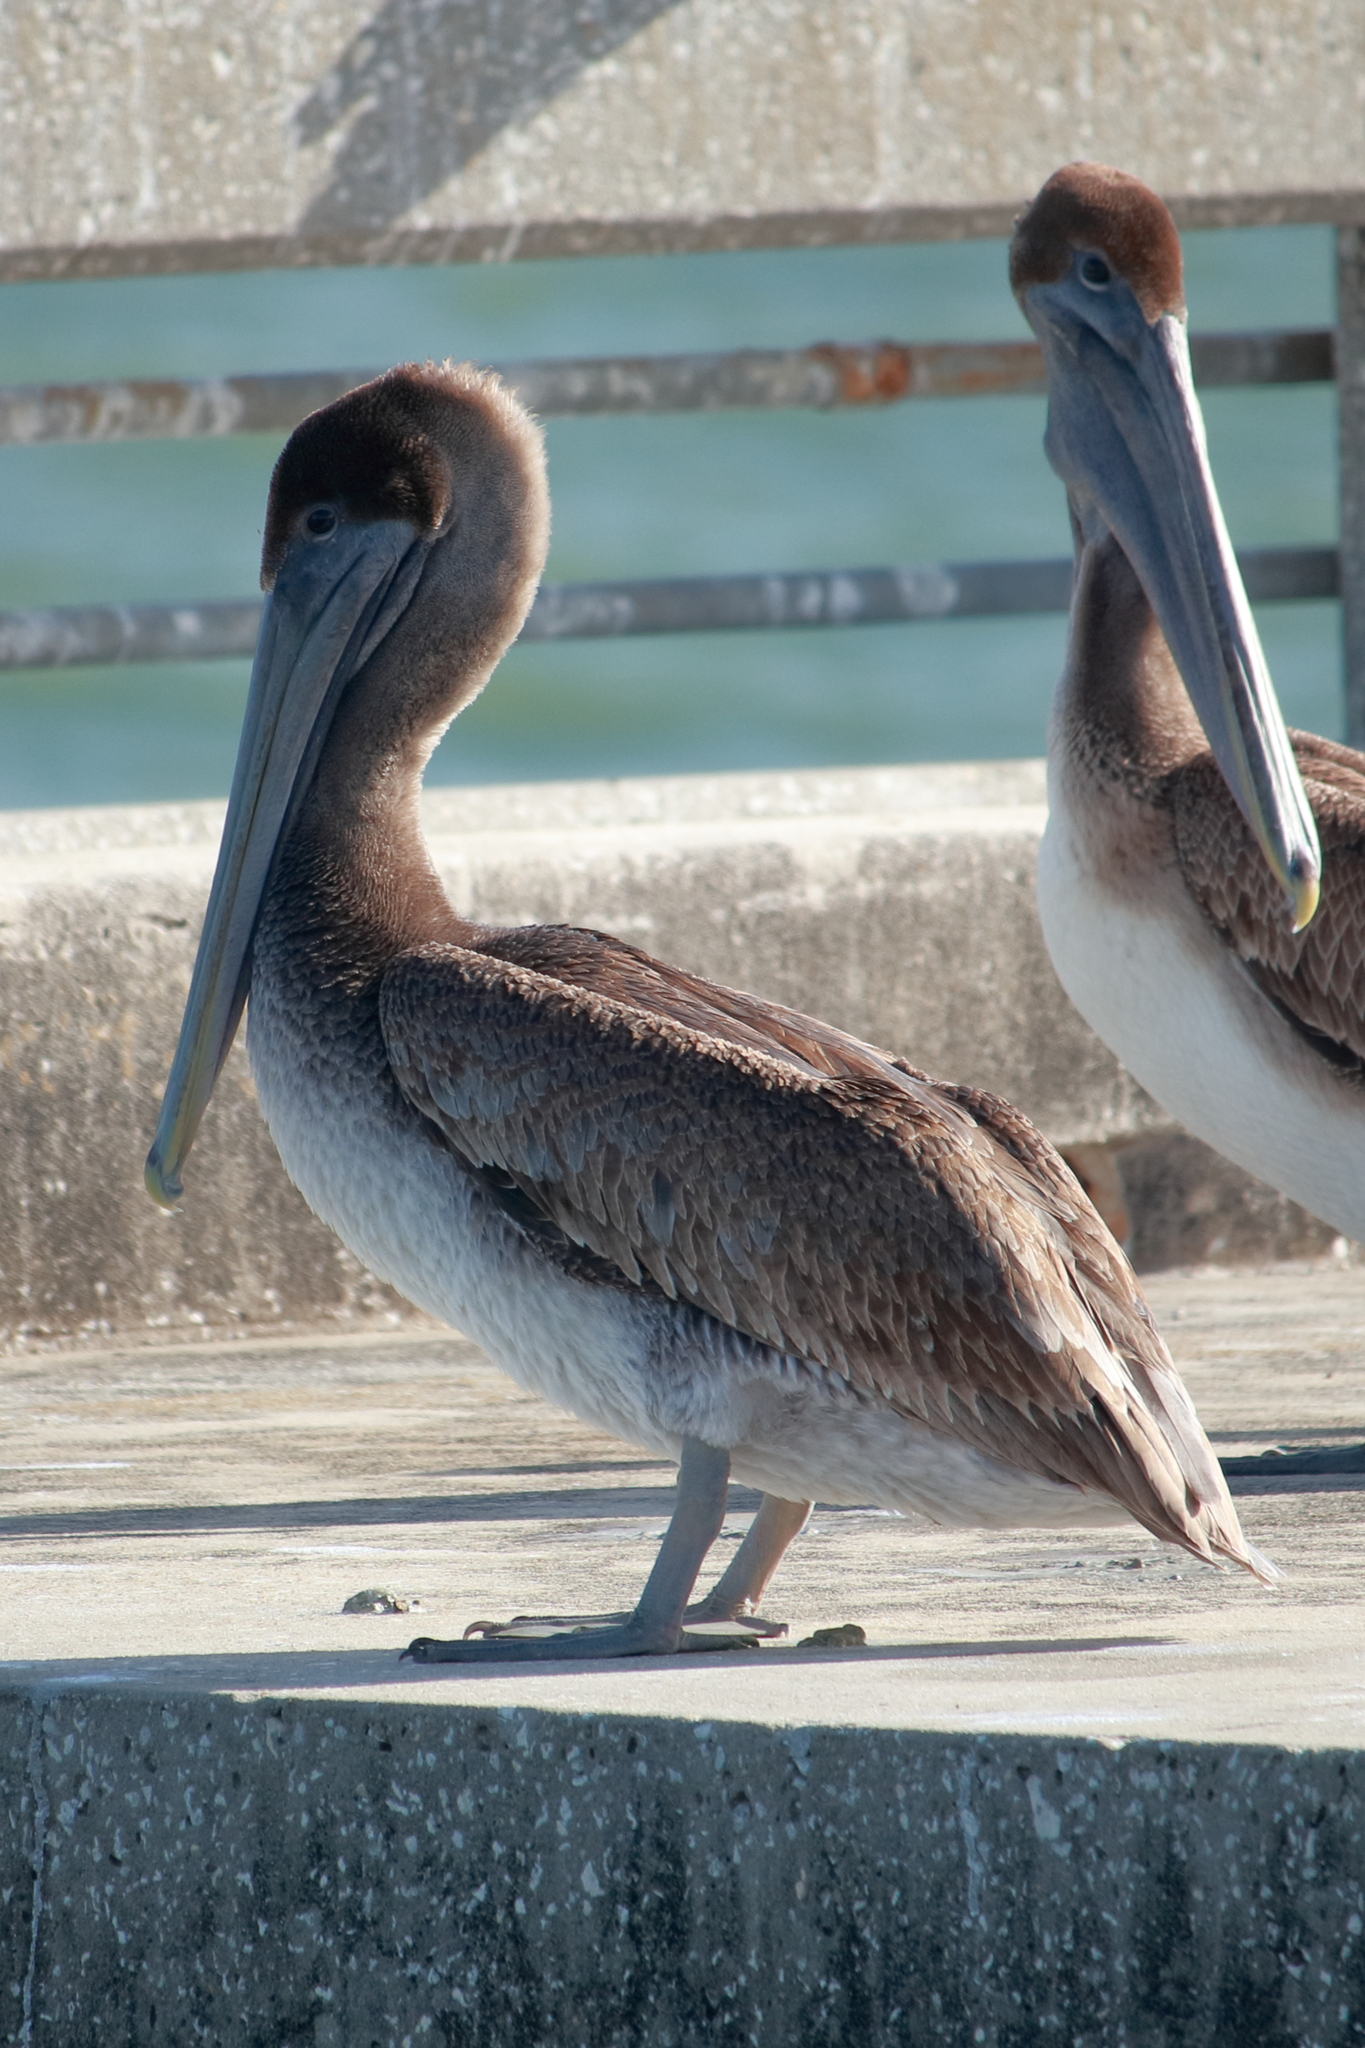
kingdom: Animalia
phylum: Chordata
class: Aves
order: Pelecaniformes
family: Pelecanidae
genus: Pelecanus
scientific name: Pelecanus occidentalis
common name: Brown pelican
